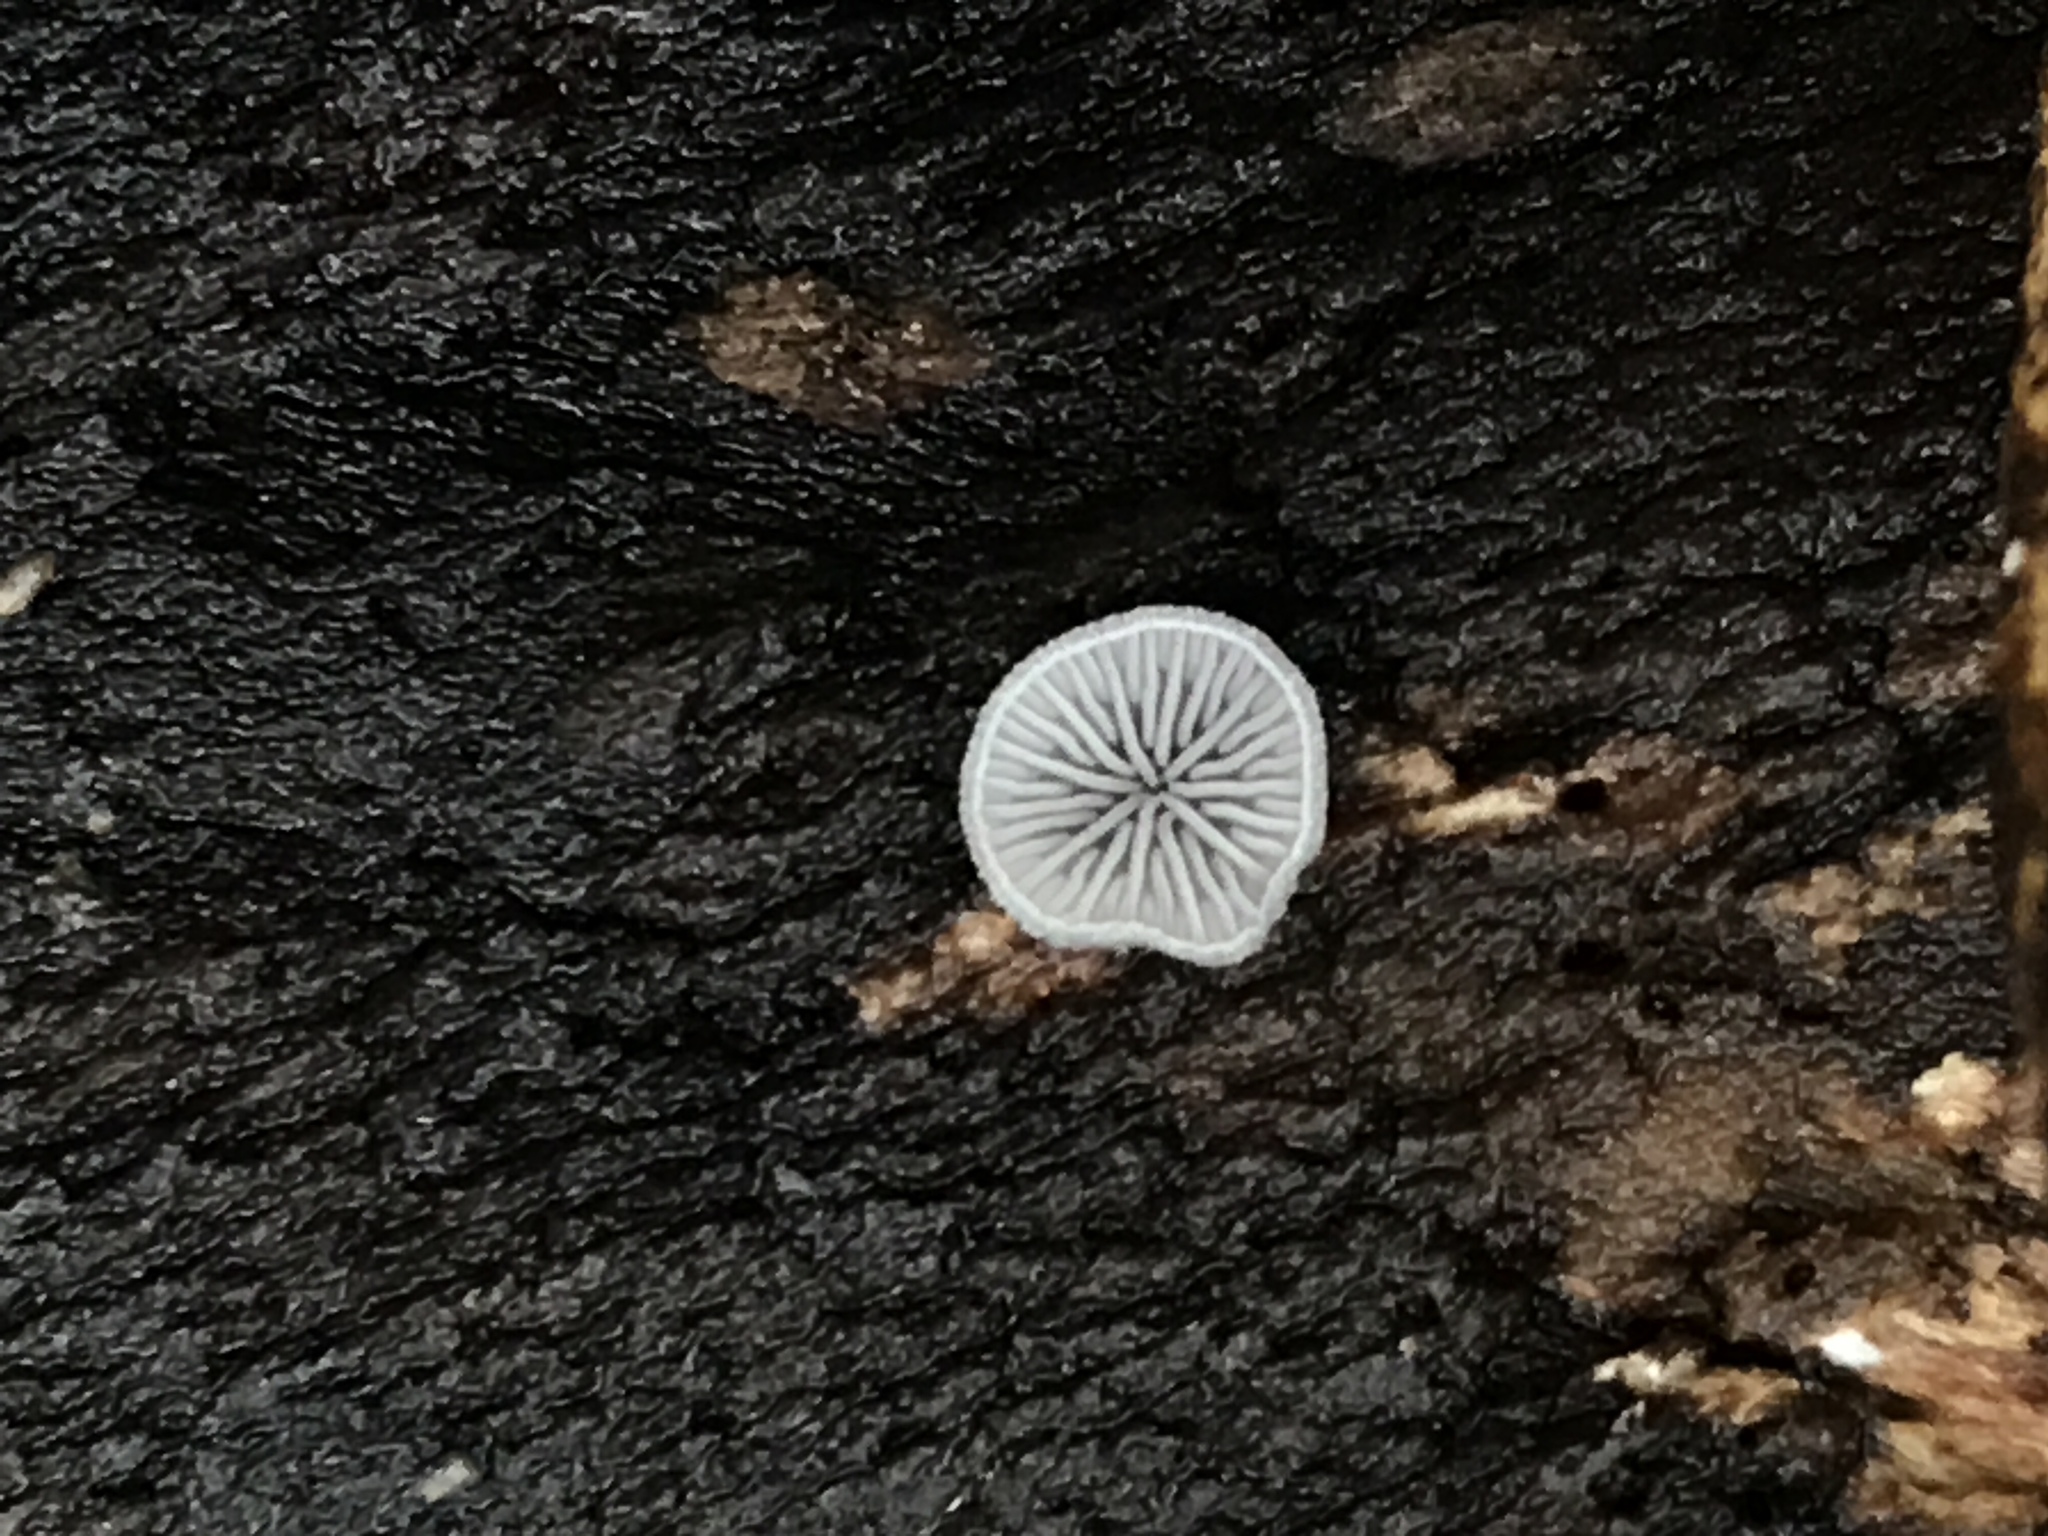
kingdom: Fungi
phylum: Basidiomycota
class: Agaricomycetes
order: Agaricales
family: Pleurotaceae
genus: Resupinatus
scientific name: Resupinatus applicatus
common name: Smoked oysterling
